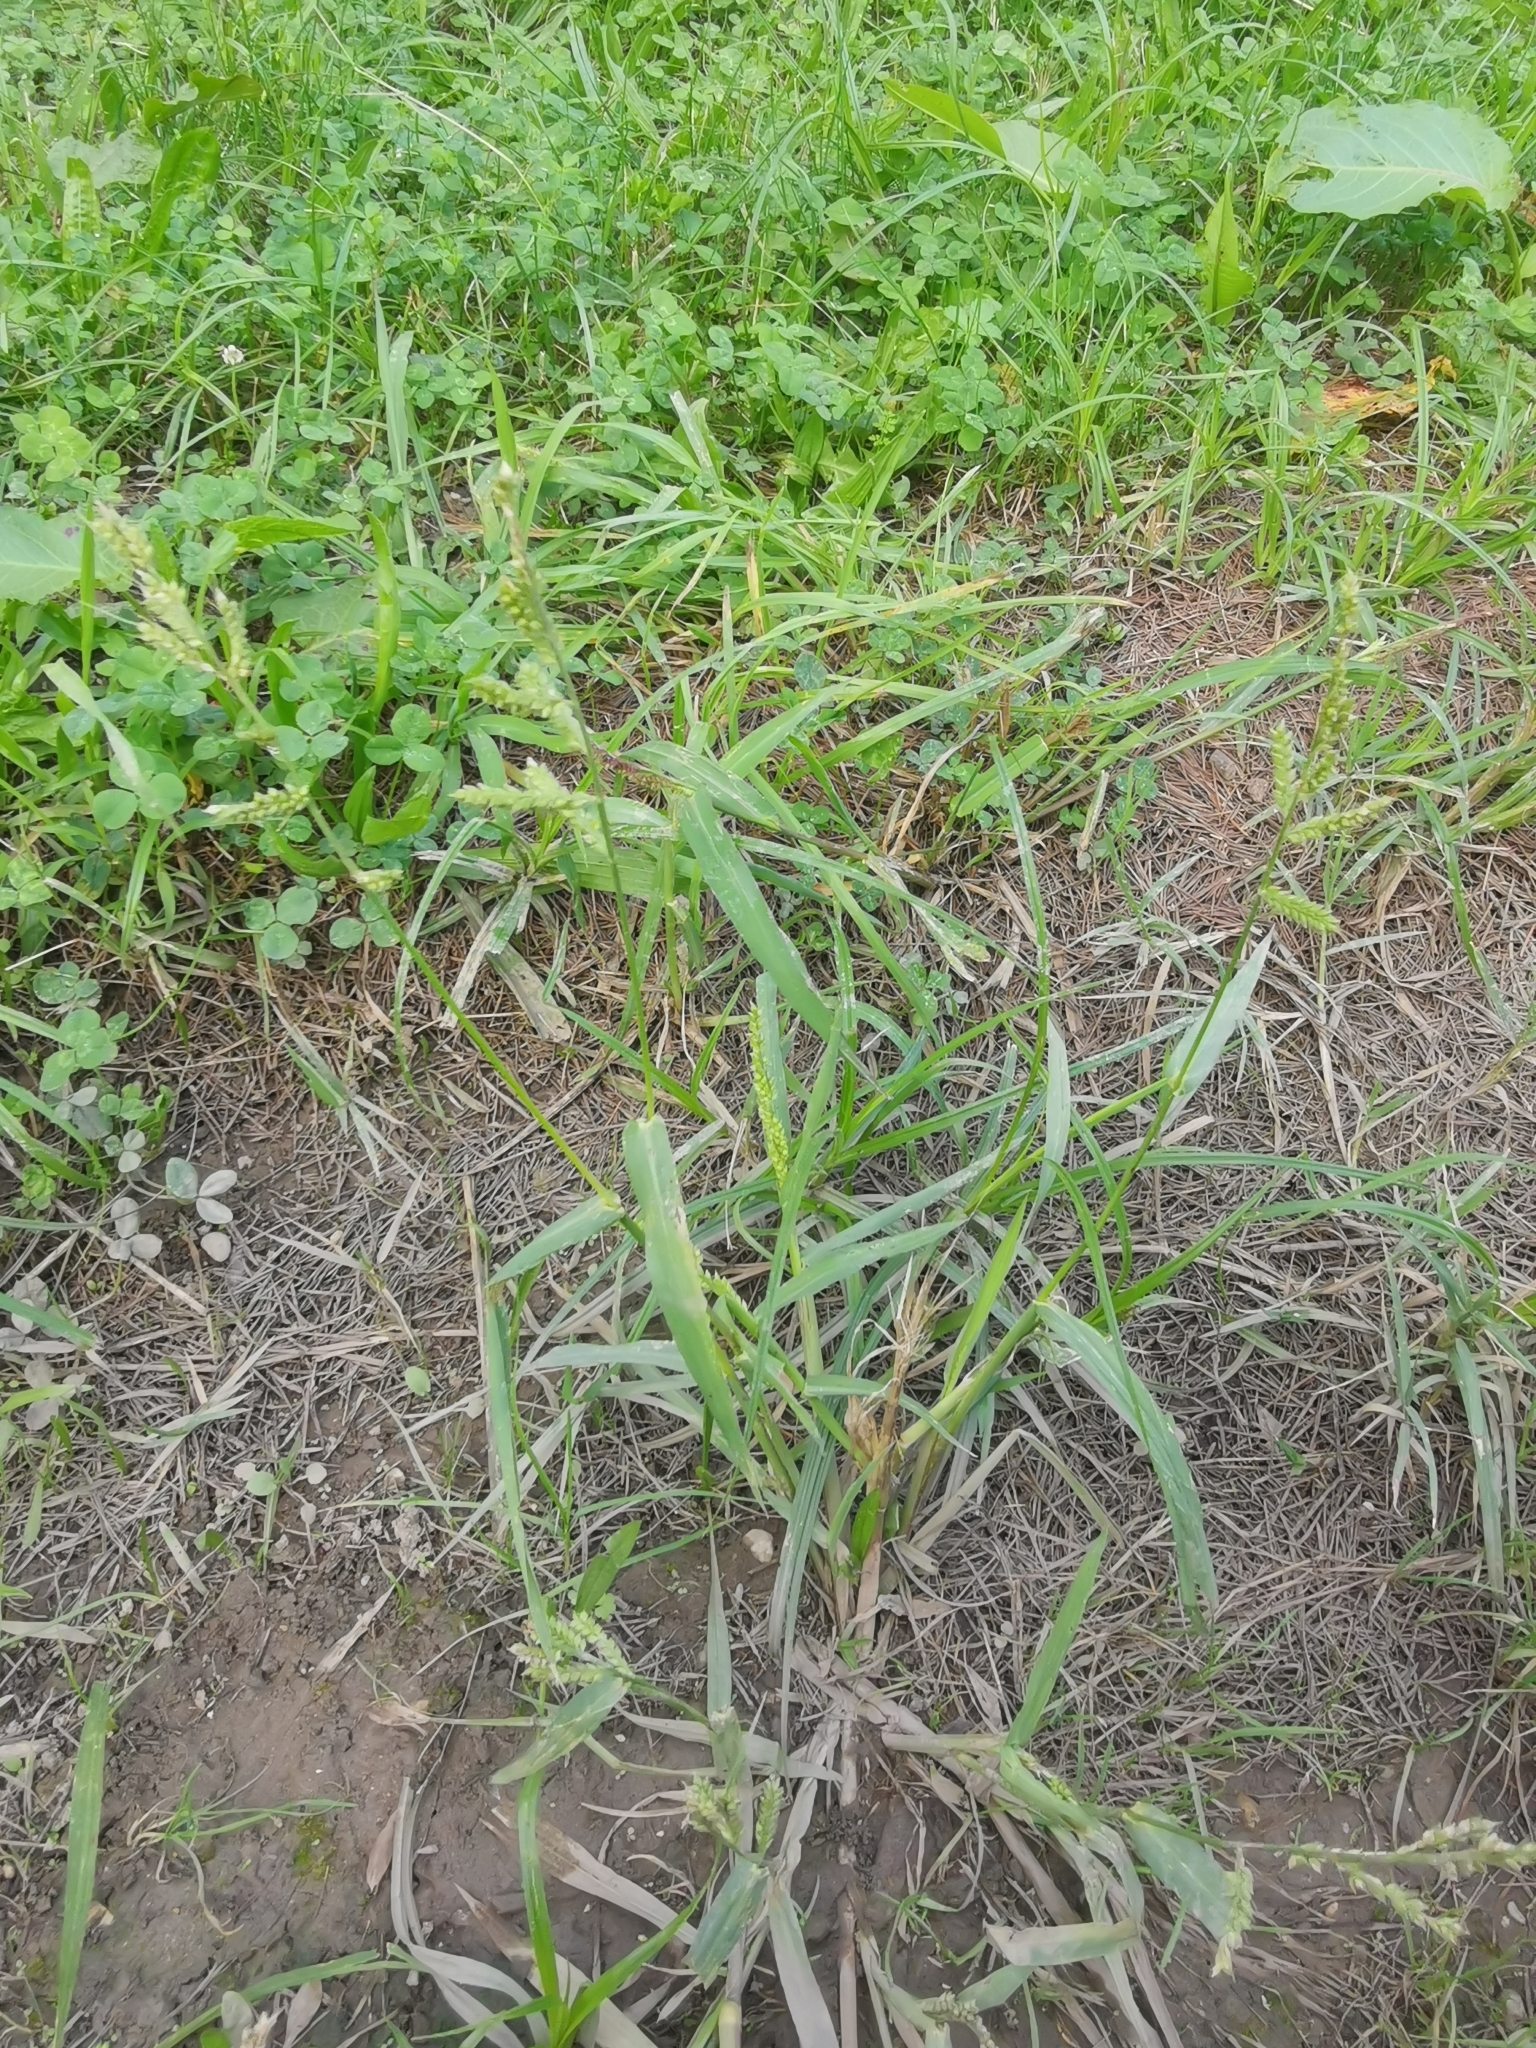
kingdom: Plantae
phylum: Tracheophyta
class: Liliopsida
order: Poales
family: Poaceae
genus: Echinochloa
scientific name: Echinochloa crus-galli
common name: Cockspur
